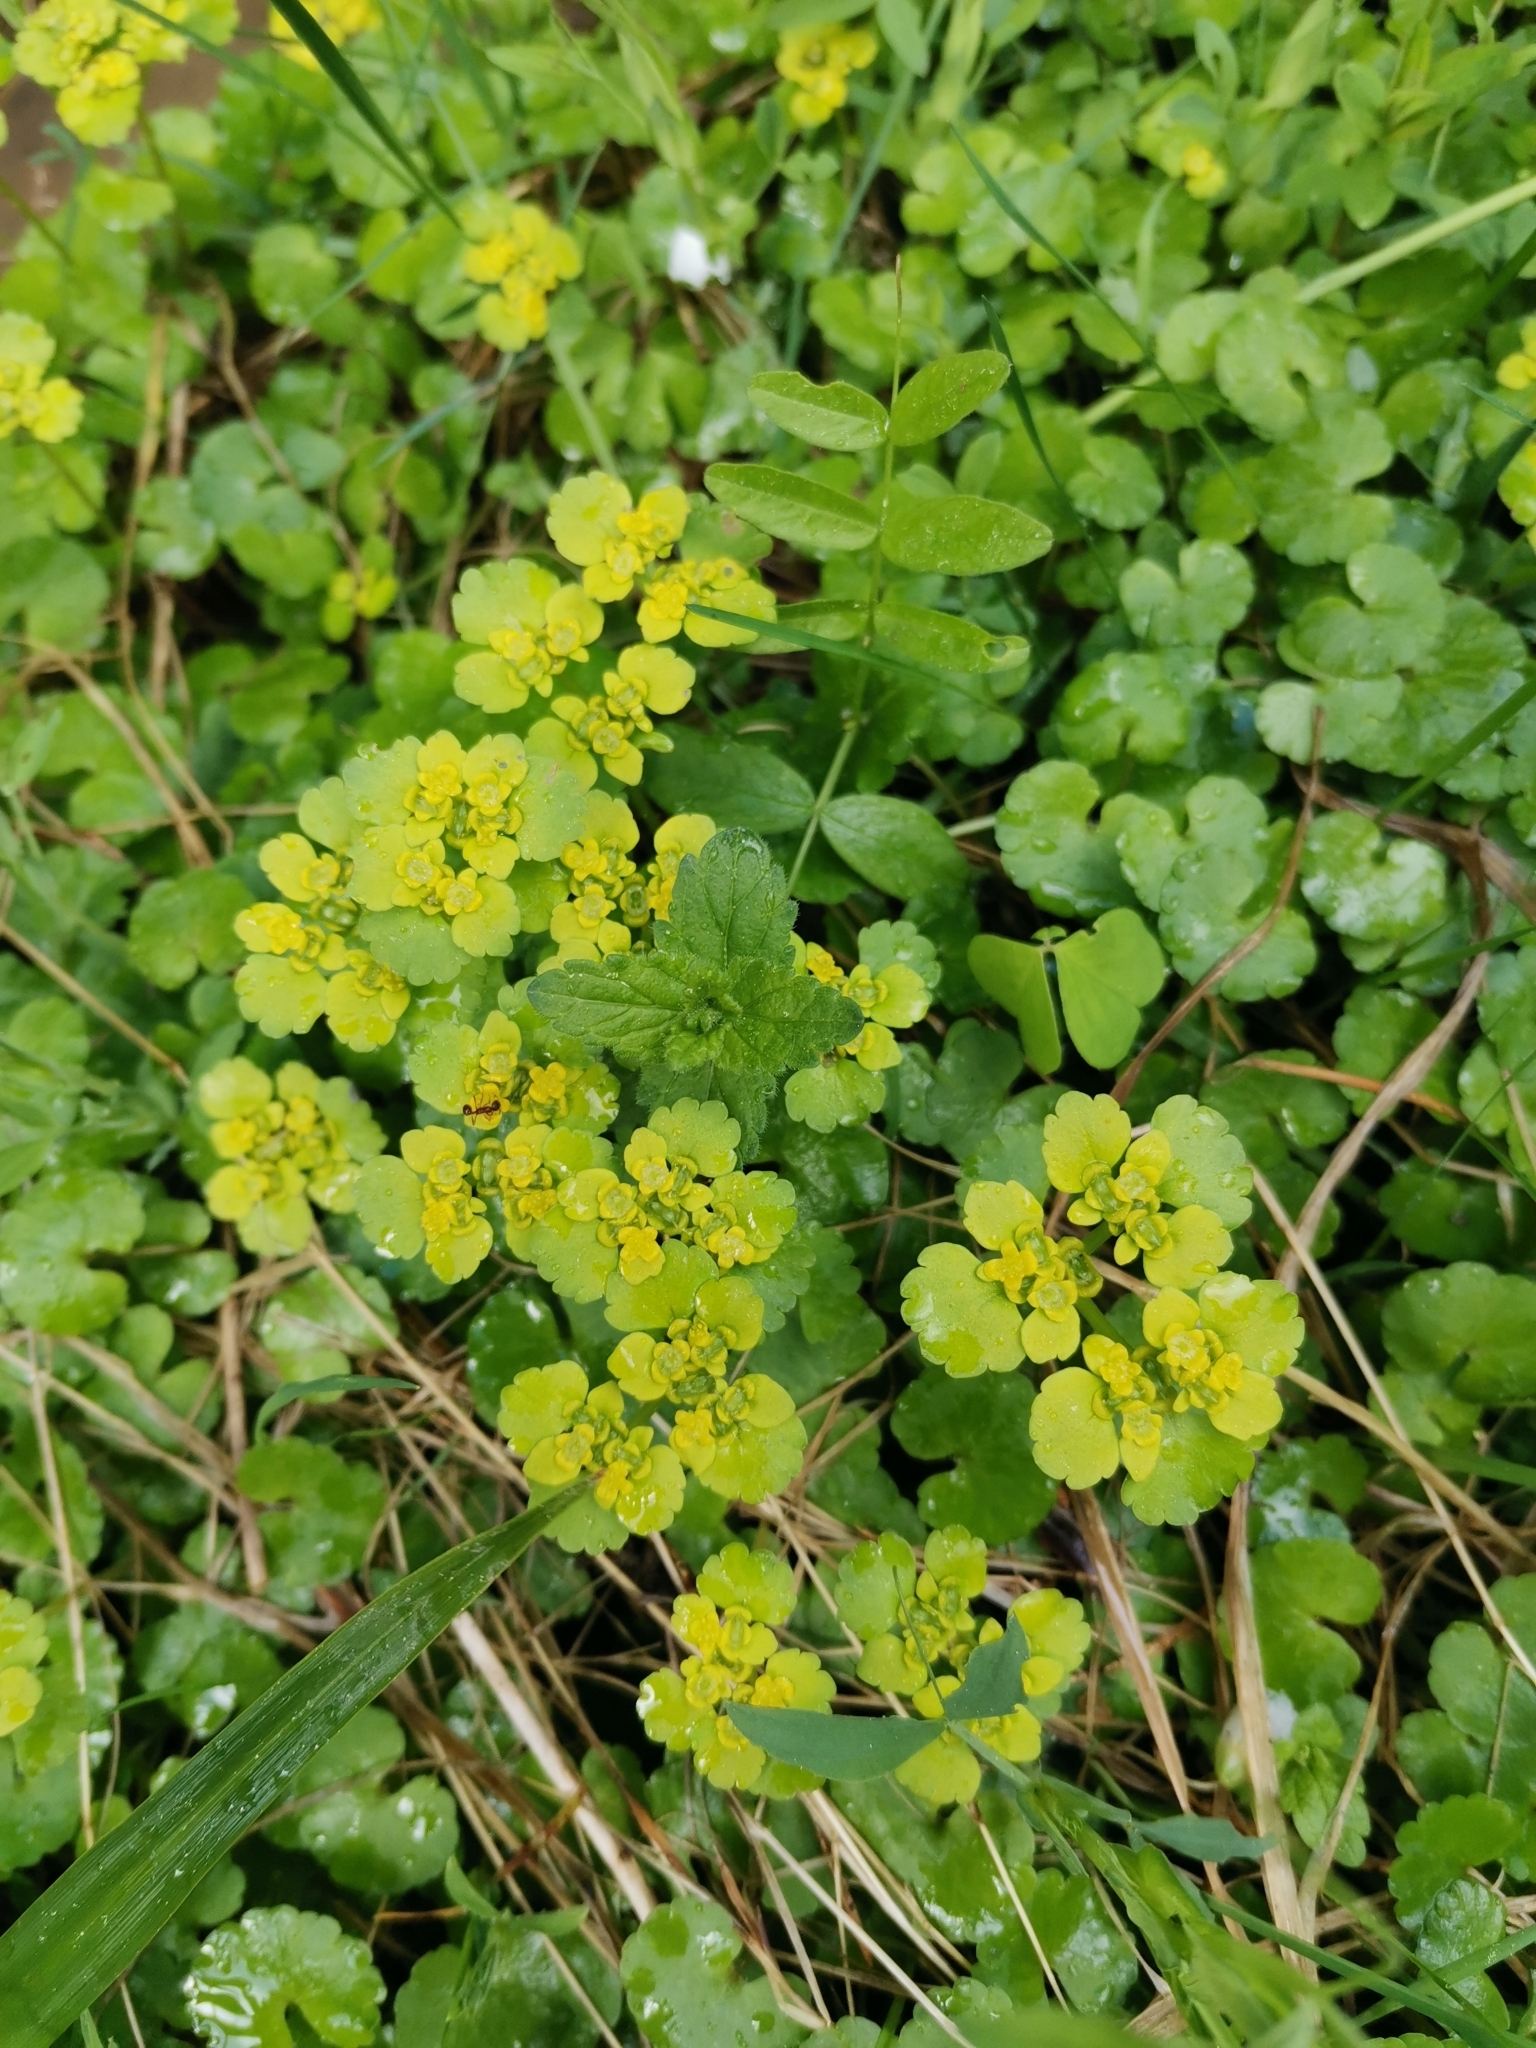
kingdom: Plantae
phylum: Tracheophyta
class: Magnoliopsida
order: Saxifragales
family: Saxifragaceae
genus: Chrysosplenium
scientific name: Chrysosplenium alternifolium
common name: Alternate-leaved golden-saxifrage
